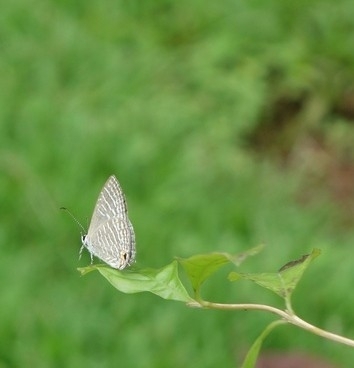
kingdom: Animalia
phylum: Arthropoda
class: Insecta
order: Lepidoptera
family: Lycaenidae
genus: Jamides
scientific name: Jamides celeno
